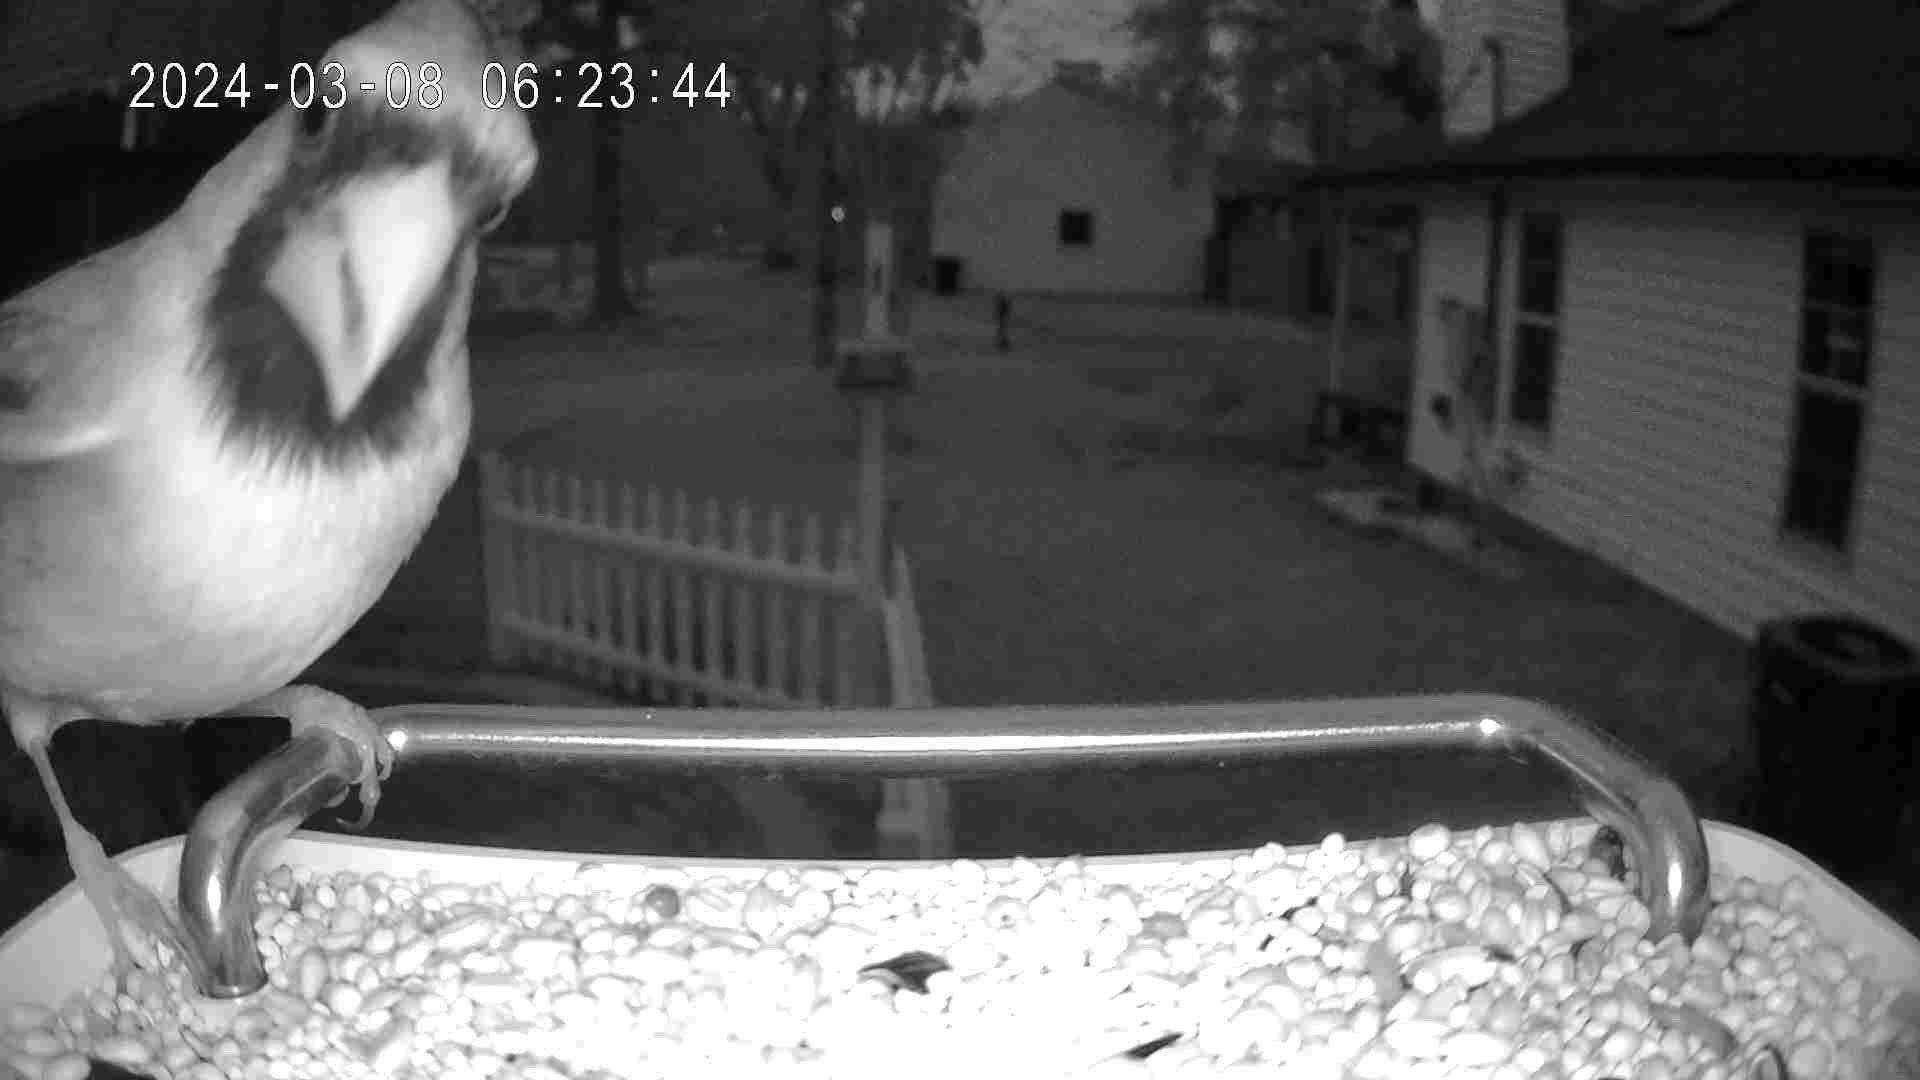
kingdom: Animalia
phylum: Chordata
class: Aves
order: Passeriformes
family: Cardinalidae
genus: Cardinalis
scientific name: Cardinalis cardinalis
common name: Northern cardinal
